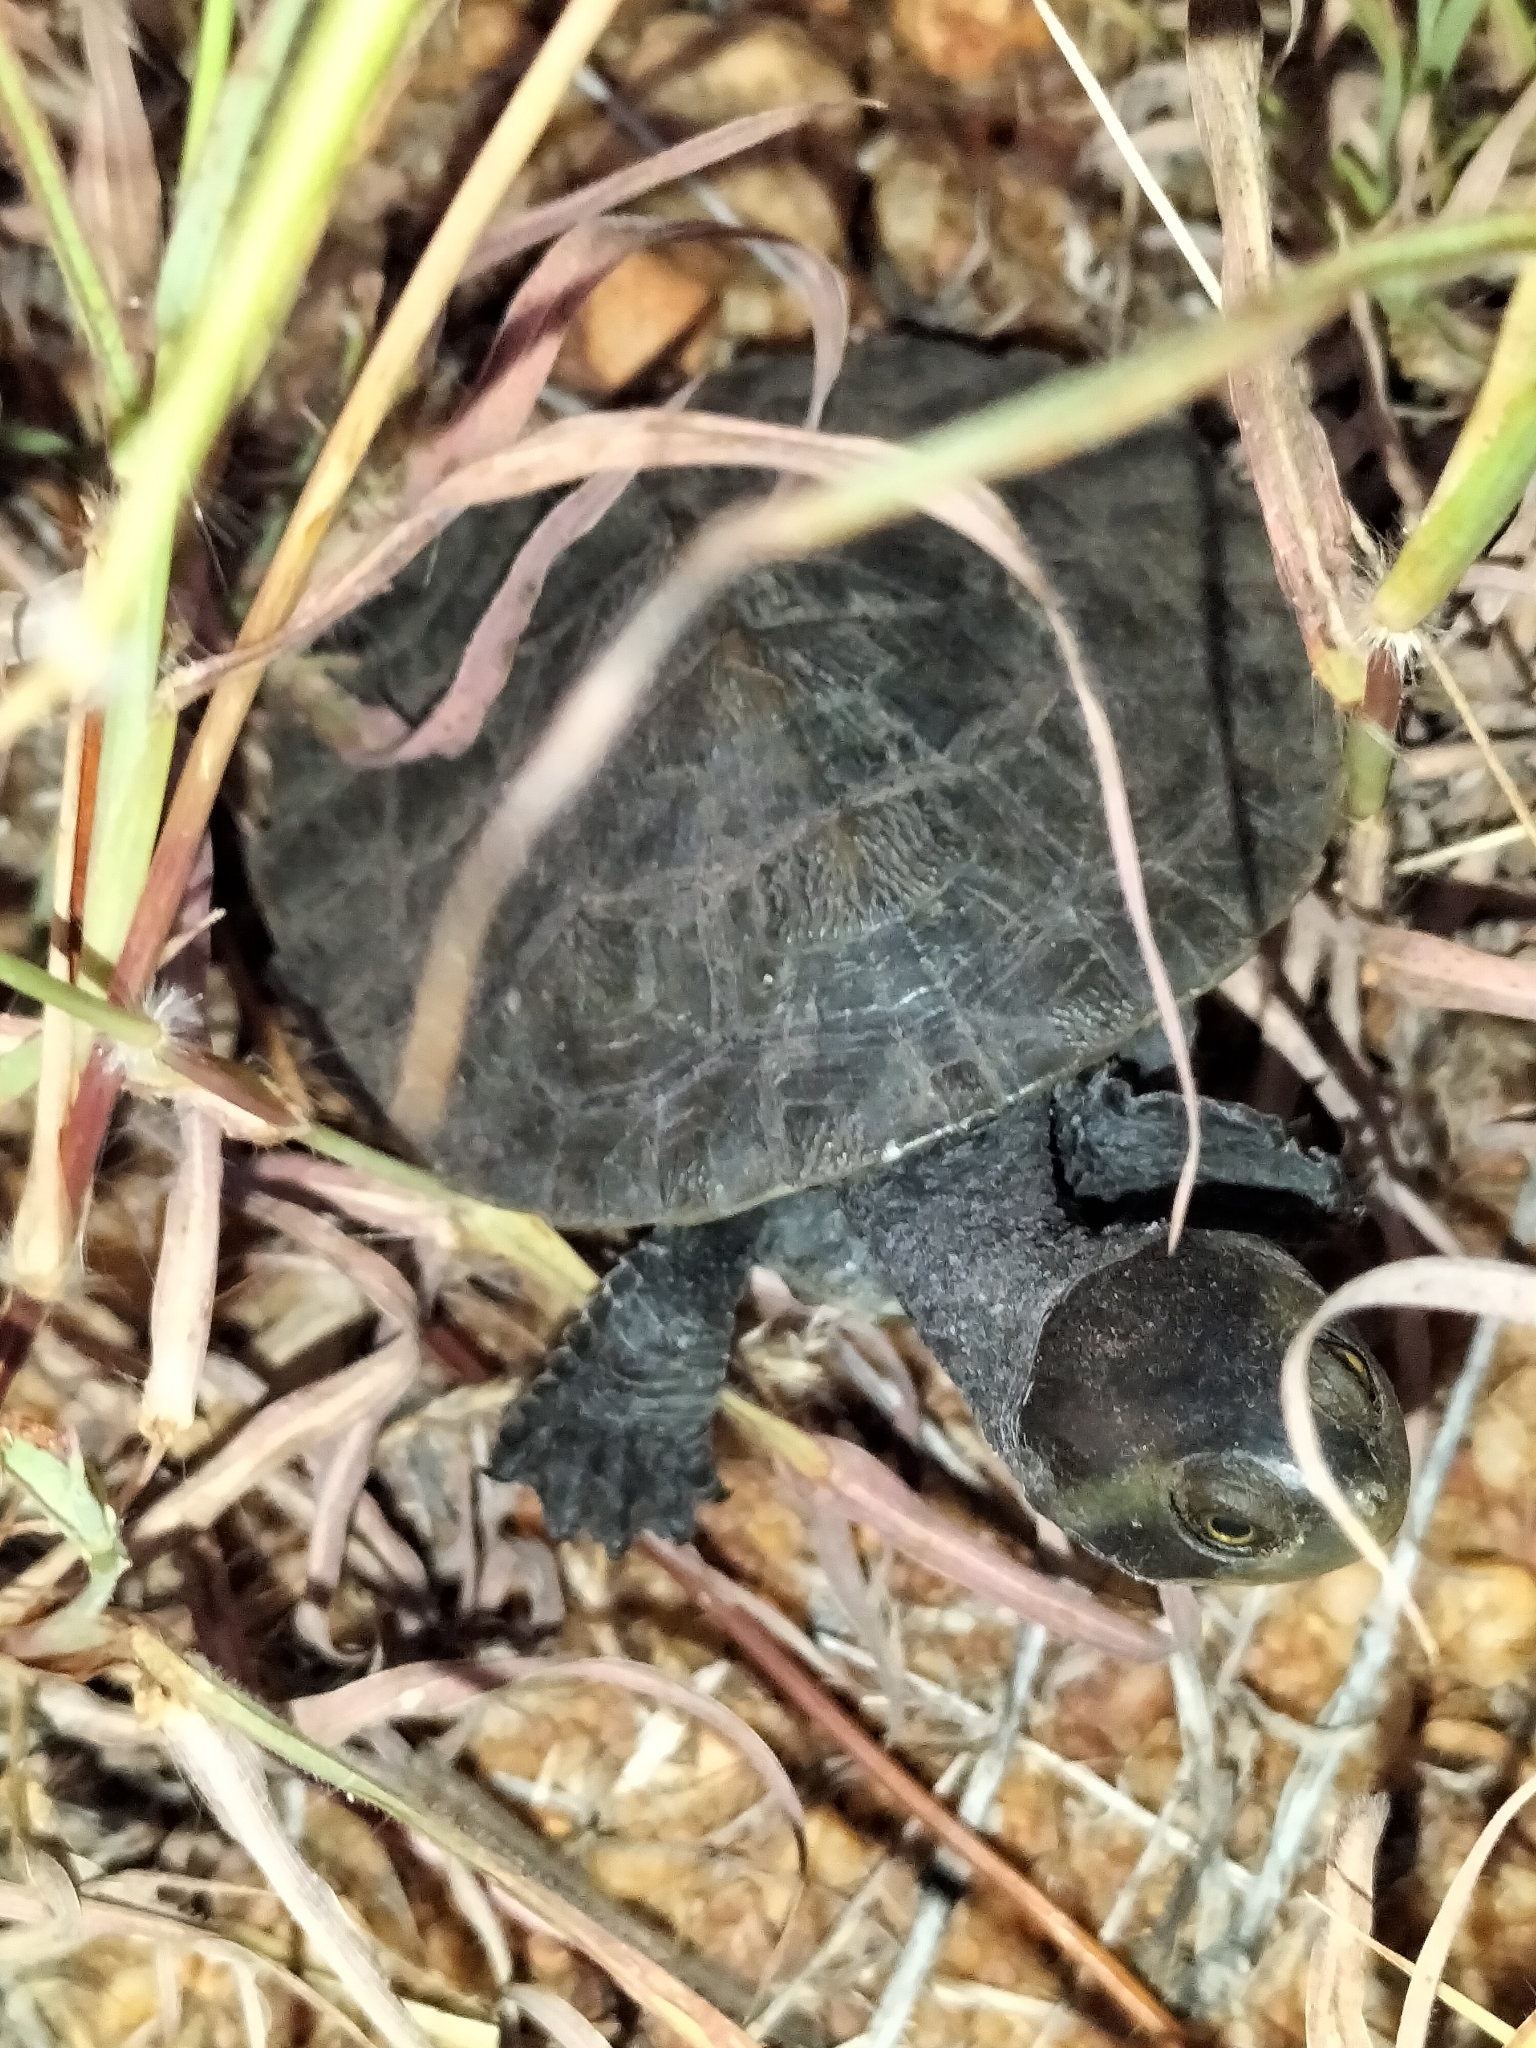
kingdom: Animalia
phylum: Chordata
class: Testudines
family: Chelidae
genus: Emydura
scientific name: Emydura macquarii
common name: Murray river turtle
